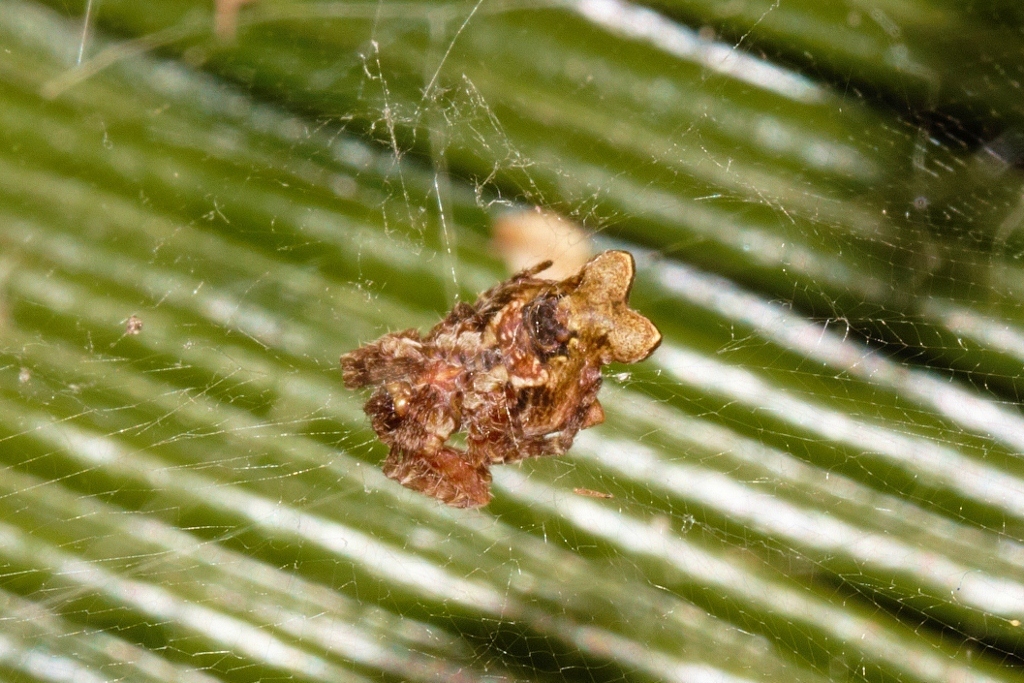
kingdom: Animalia
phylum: Arthropoda
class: Arachnida
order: Araneae
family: Araneidae
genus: Cyrtophora
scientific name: Cyrtophora citricola
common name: Orb weavers
